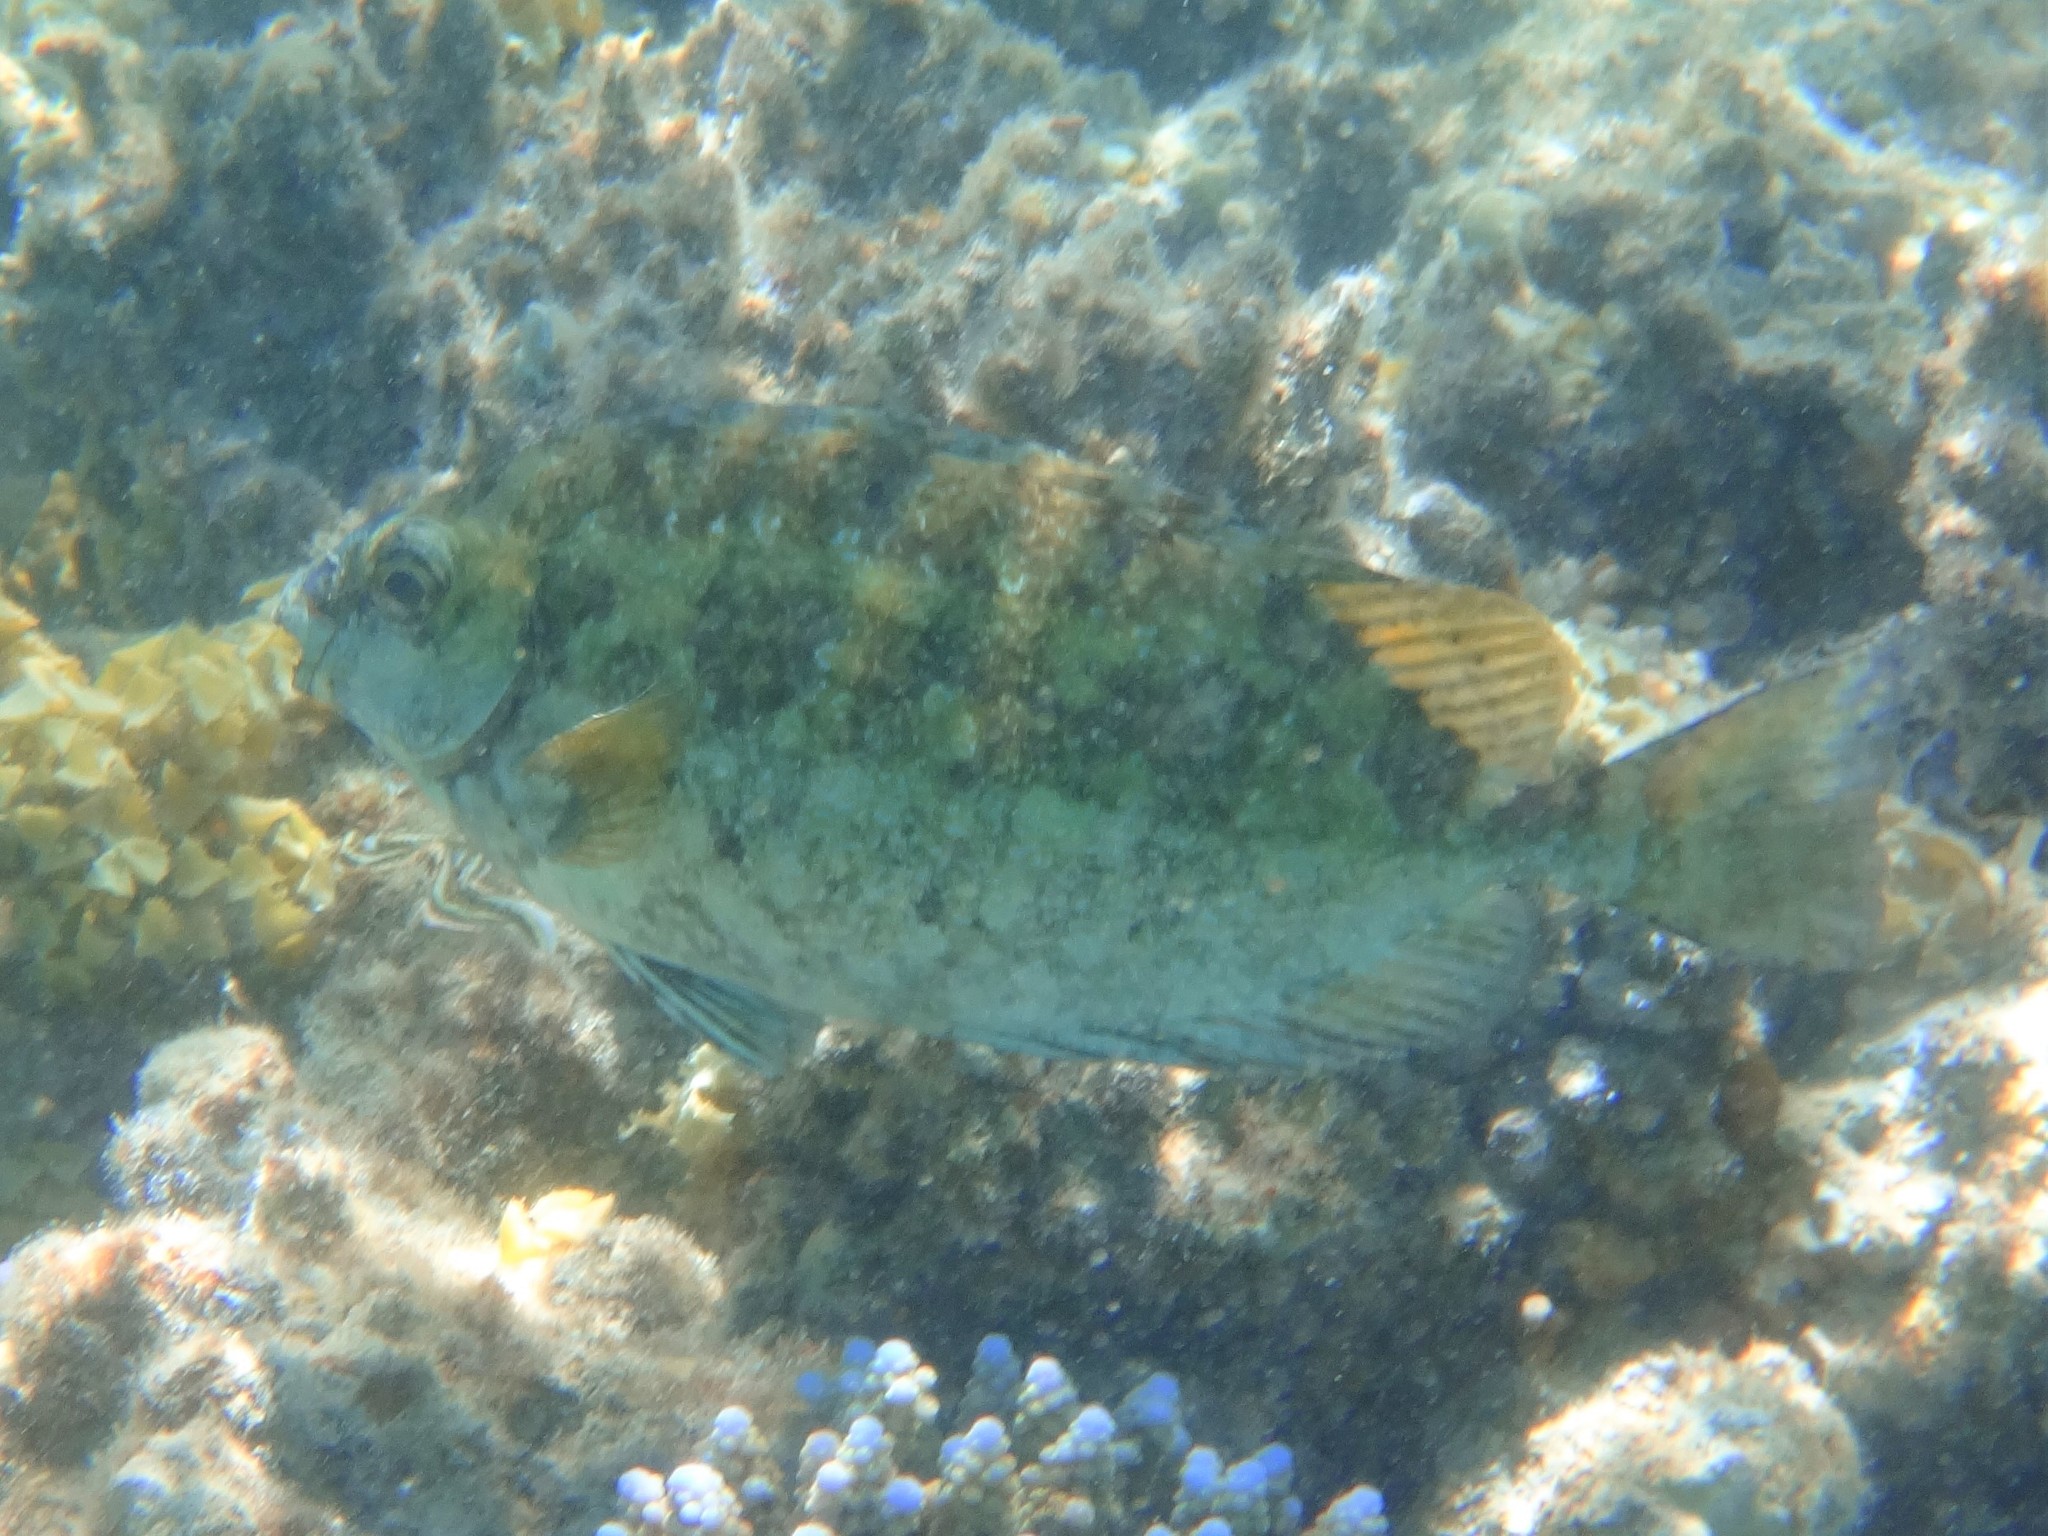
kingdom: Animalia
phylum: Chordata
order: Perciformes
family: Siganidae
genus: Siganus
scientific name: Siganus luridus
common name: Dusky spinefoot
